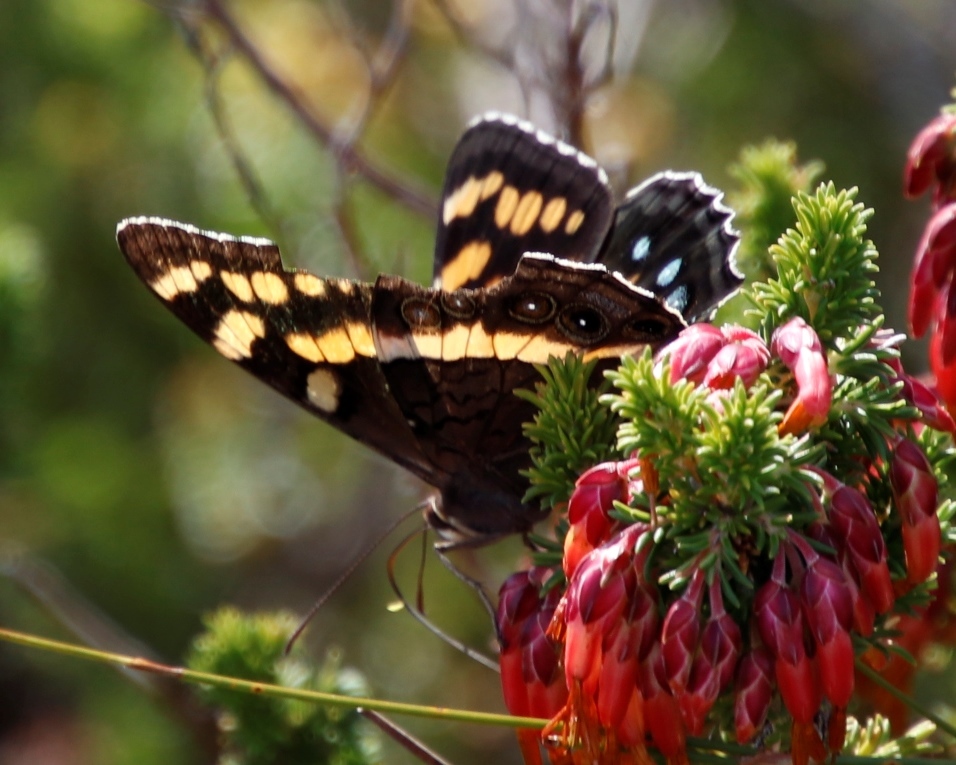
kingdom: Animalia
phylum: Arthropoda
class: Insecta
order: Lepidoptera
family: Nymphalidae
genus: Meneris
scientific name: Meneris Aeropetes tulbaghia
